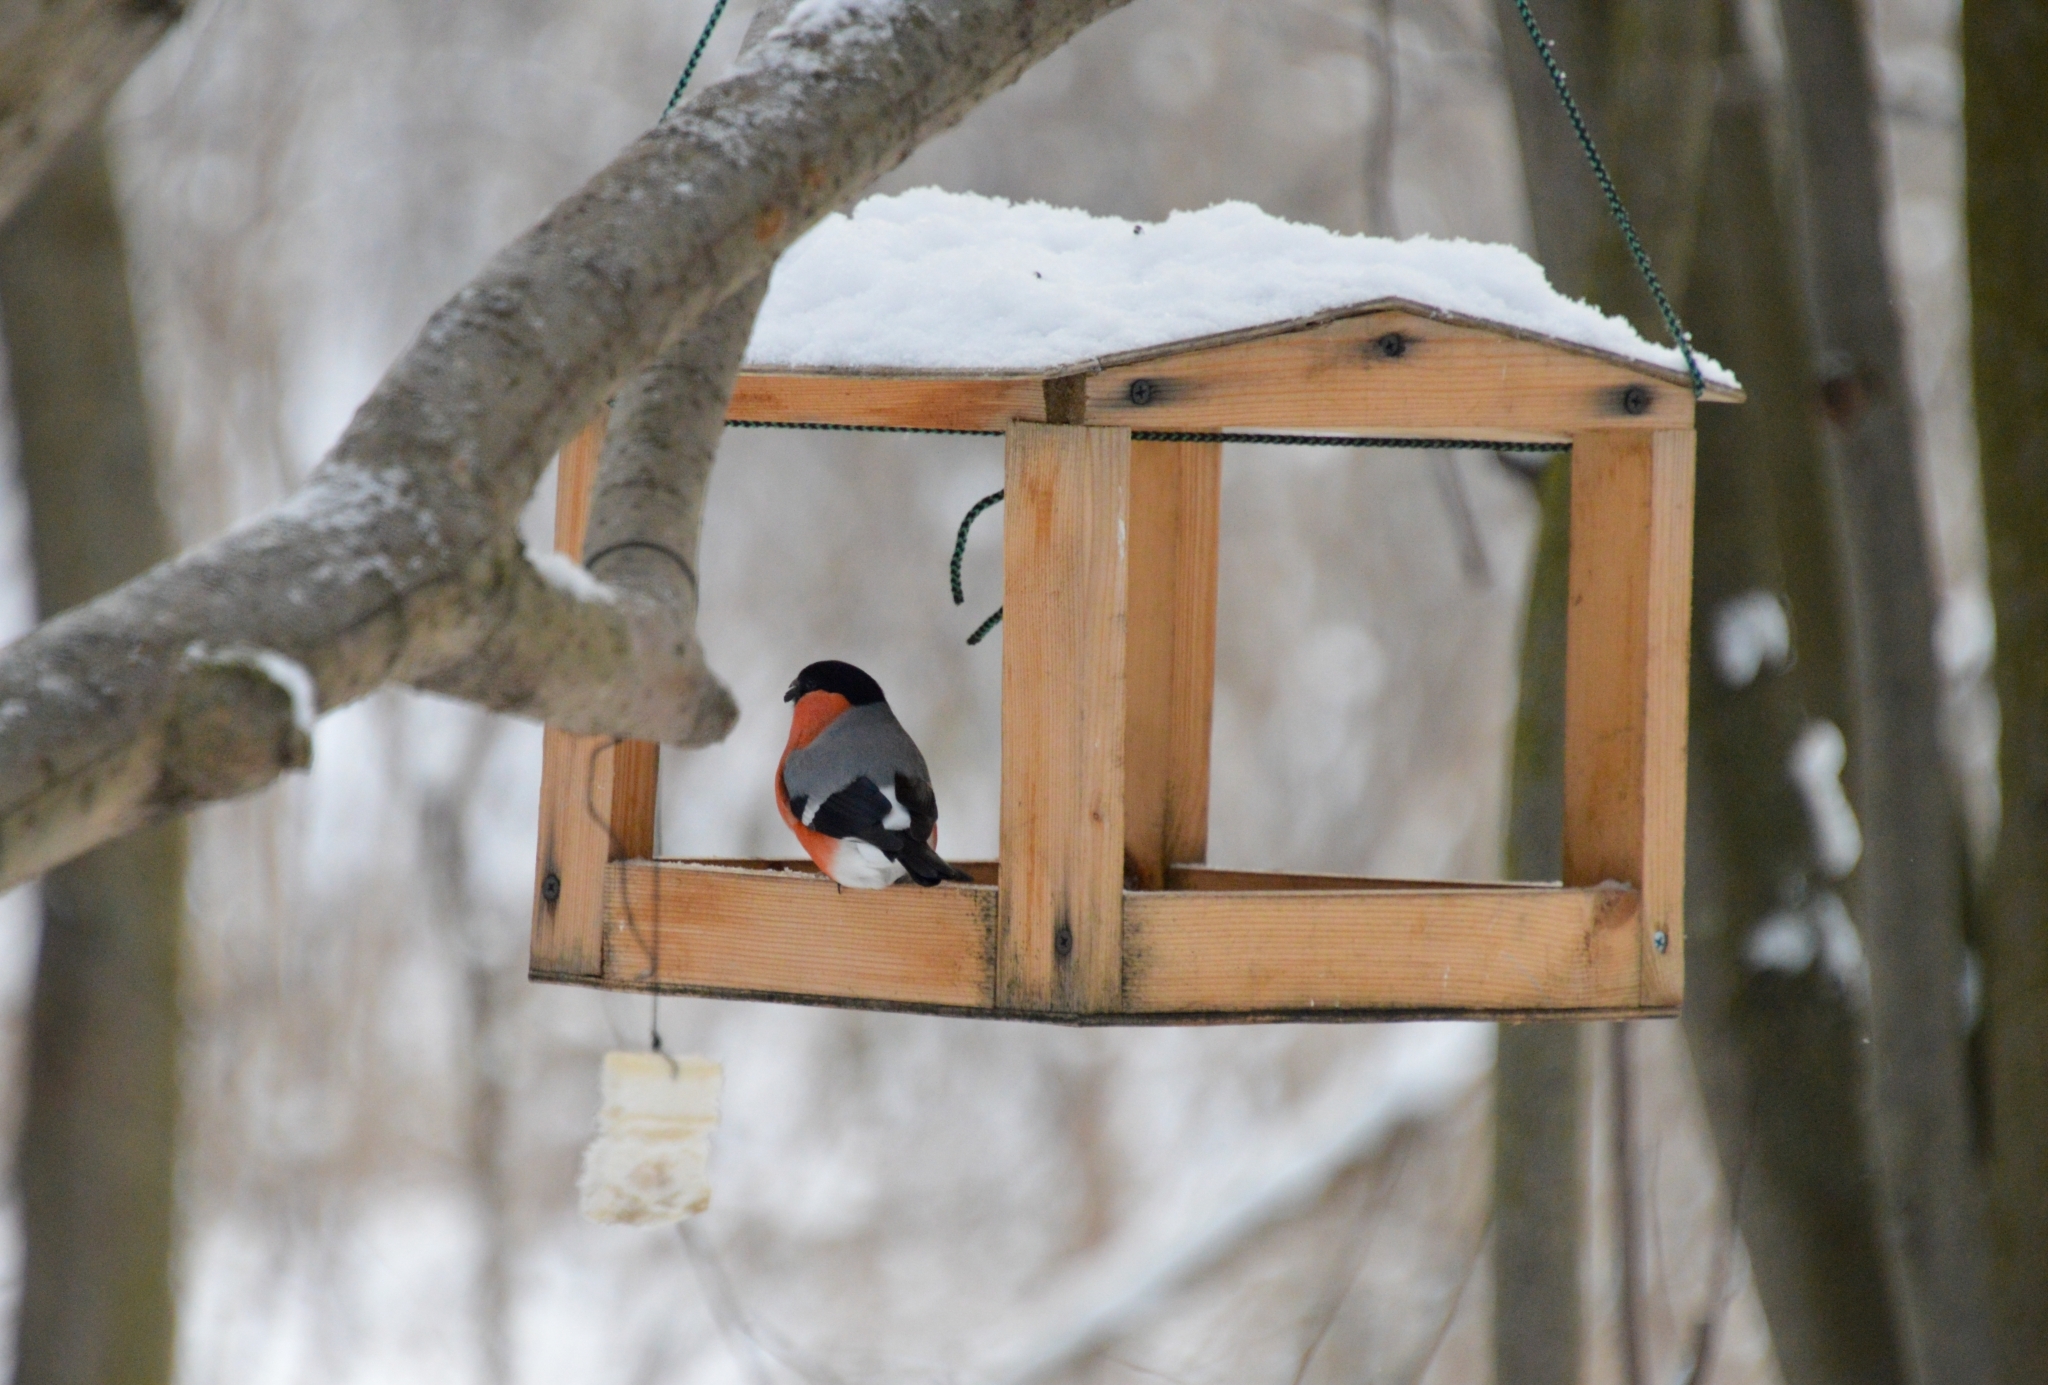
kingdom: Animalia
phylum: Chordata
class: Aves
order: Passeriformes
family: Fringillidae
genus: Pyrrhula
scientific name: Pyrrhula pyrrhula
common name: Eurasian bullfinch
